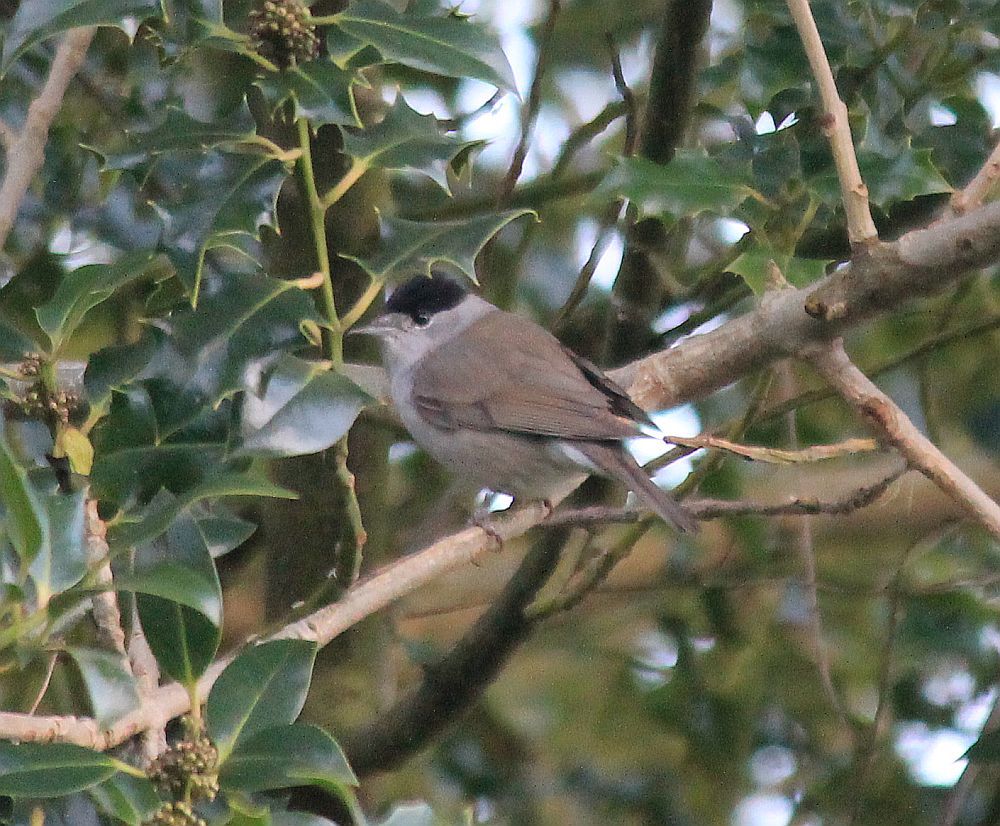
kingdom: Animalia
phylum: Chordata
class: Aves
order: Passeriformes
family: Sylviidae
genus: Sylvia
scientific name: Sylvia atricapilla
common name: Eurasian blackcap
